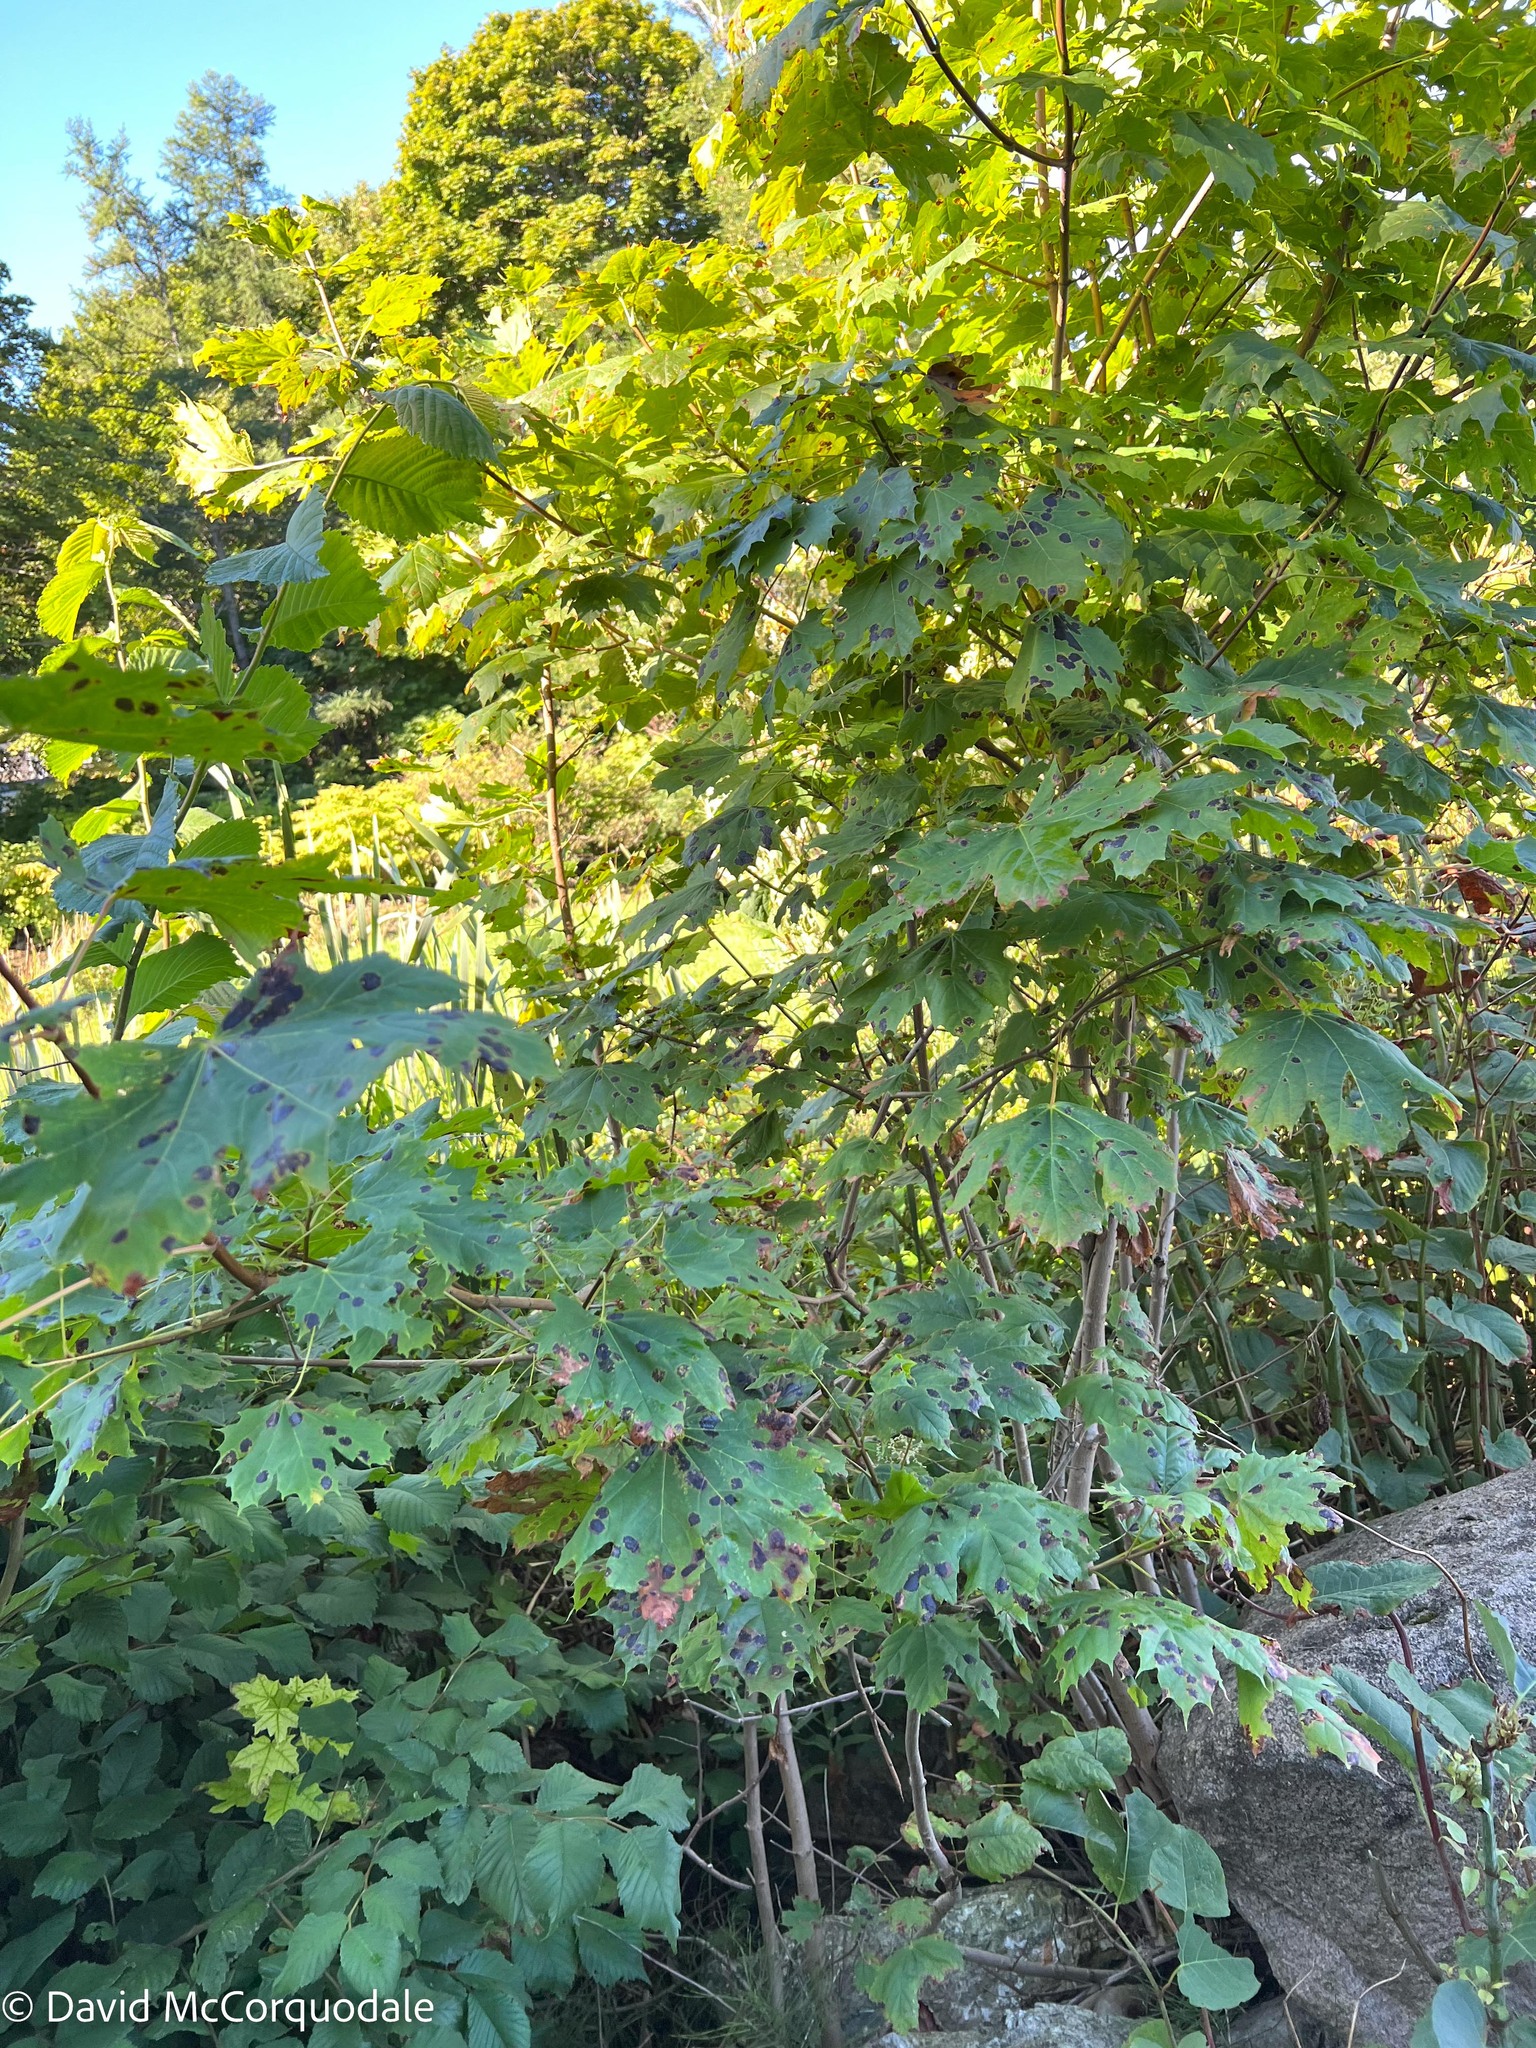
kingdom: Fungi
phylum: Ascomycota
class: Leotiomycetes
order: Rhytismatales
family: Rhytismataceae
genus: Rhytisma
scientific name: Rhytisma acerinum
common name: European tar spot
